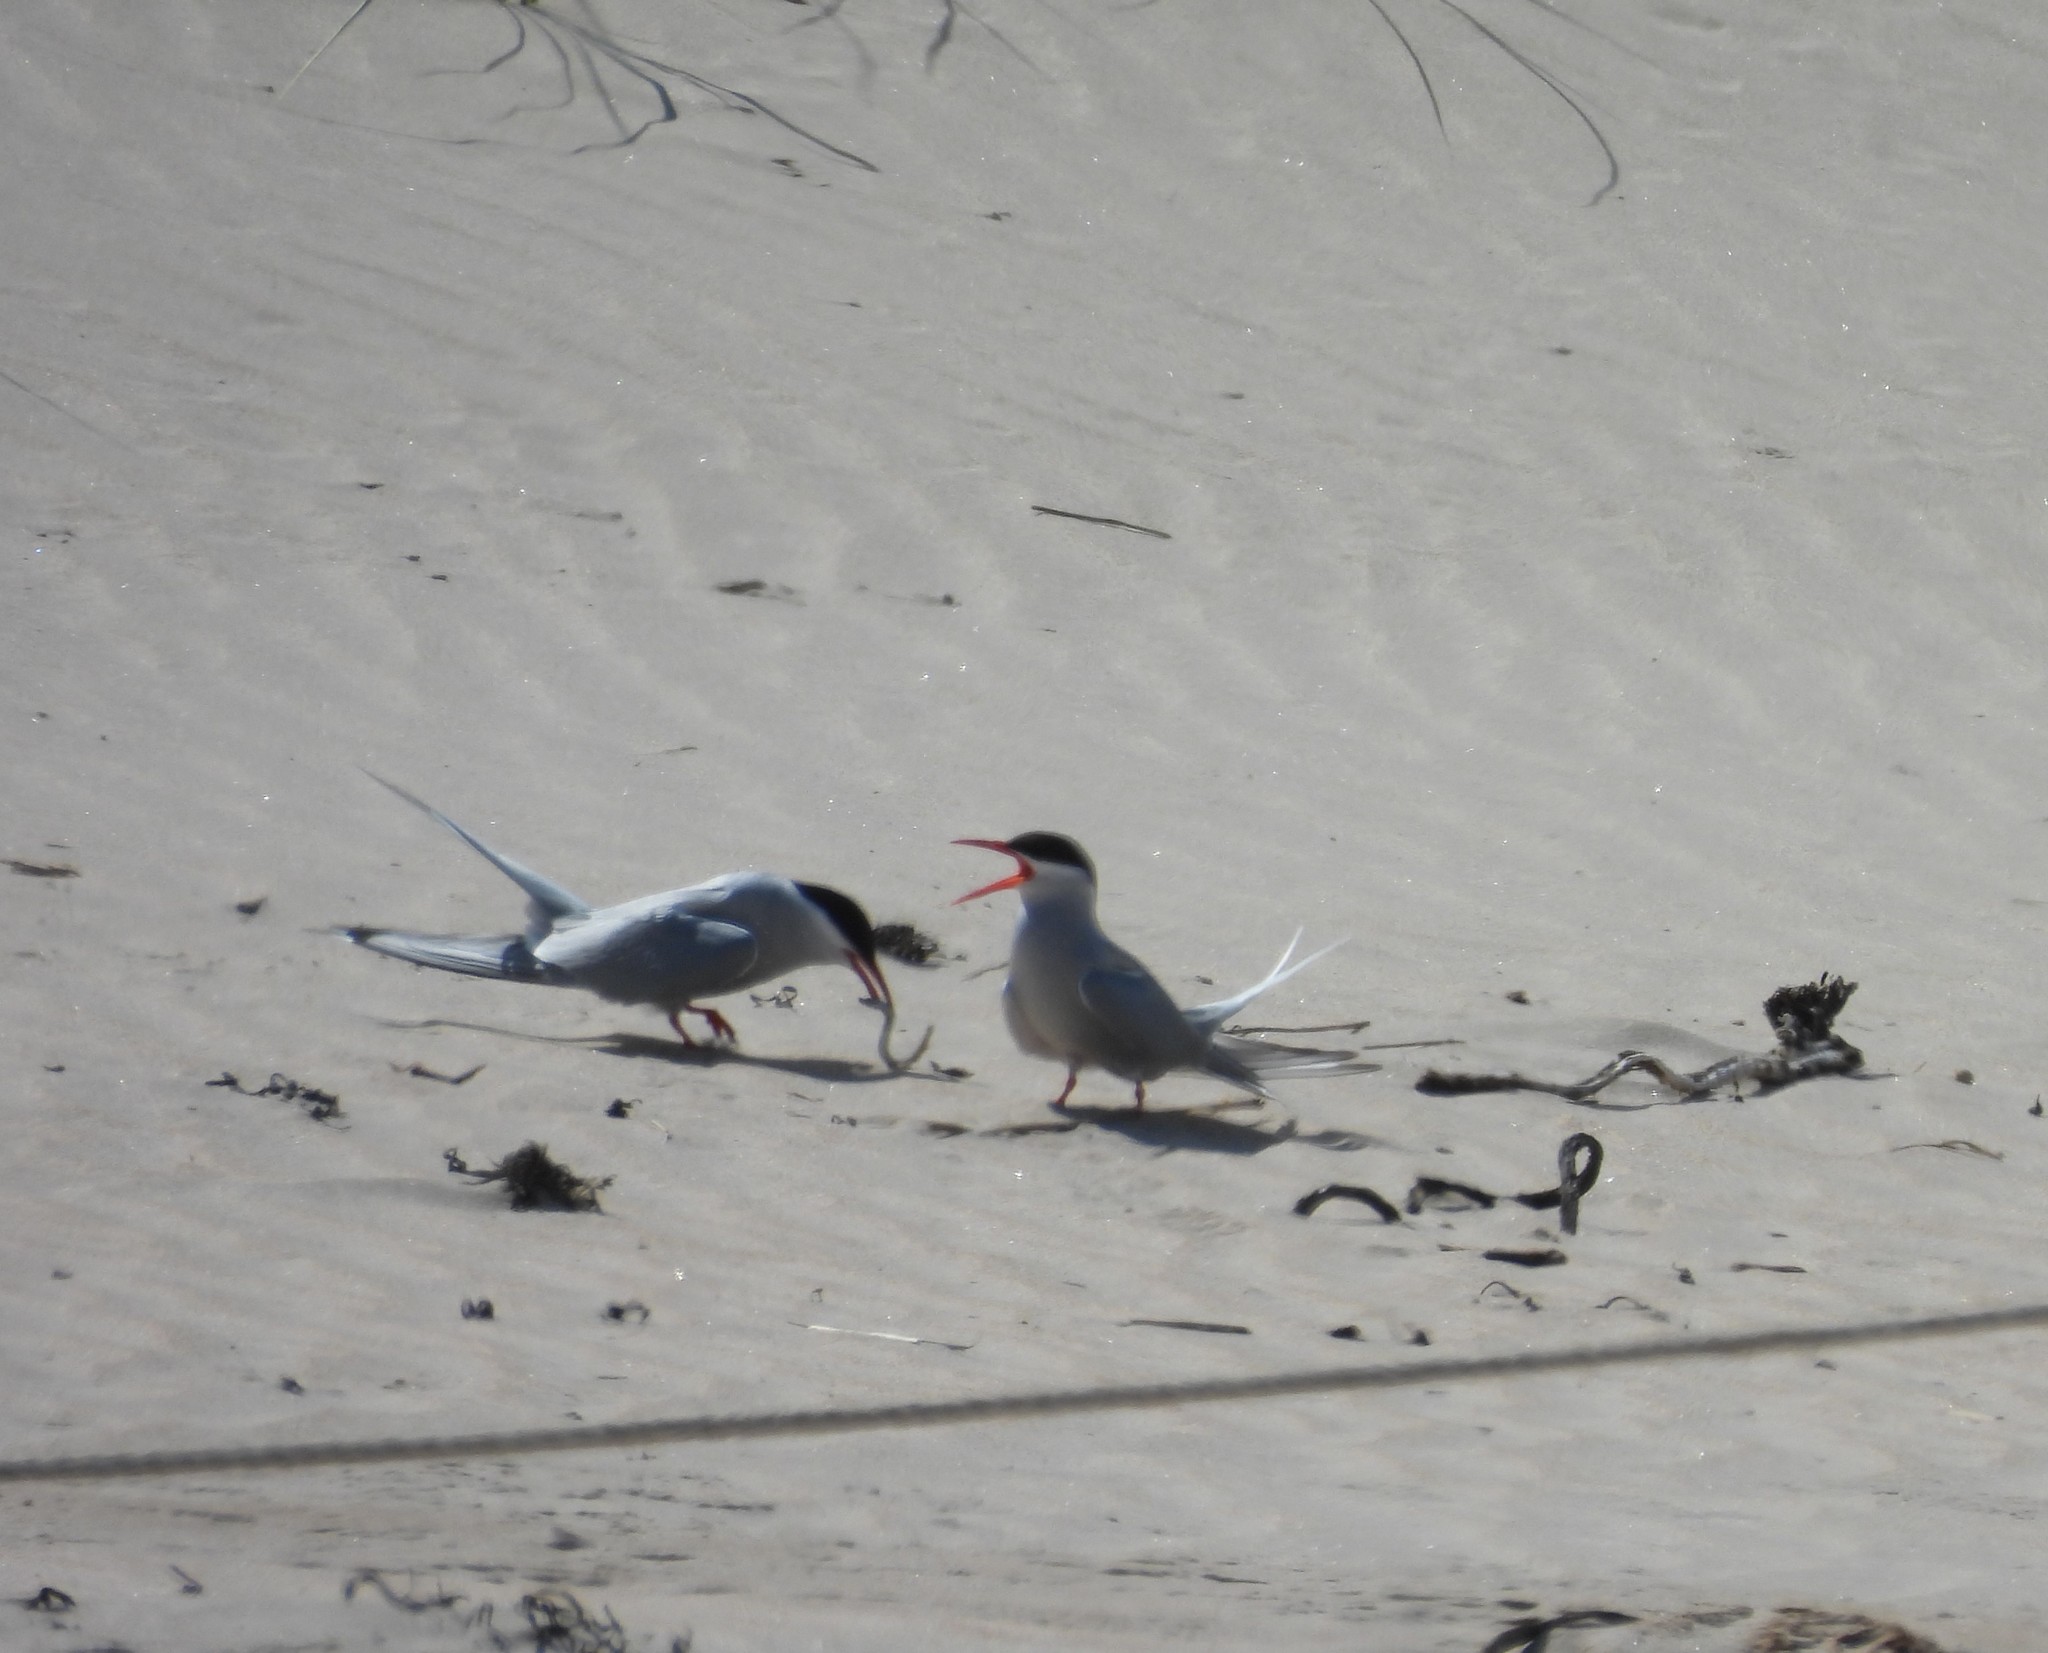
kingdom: Animalia
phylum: Chordata
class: Aves
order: Charadriiformes
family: Laridae
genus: Sterna
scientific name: Sterna paradisaea
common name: Arctic tern
